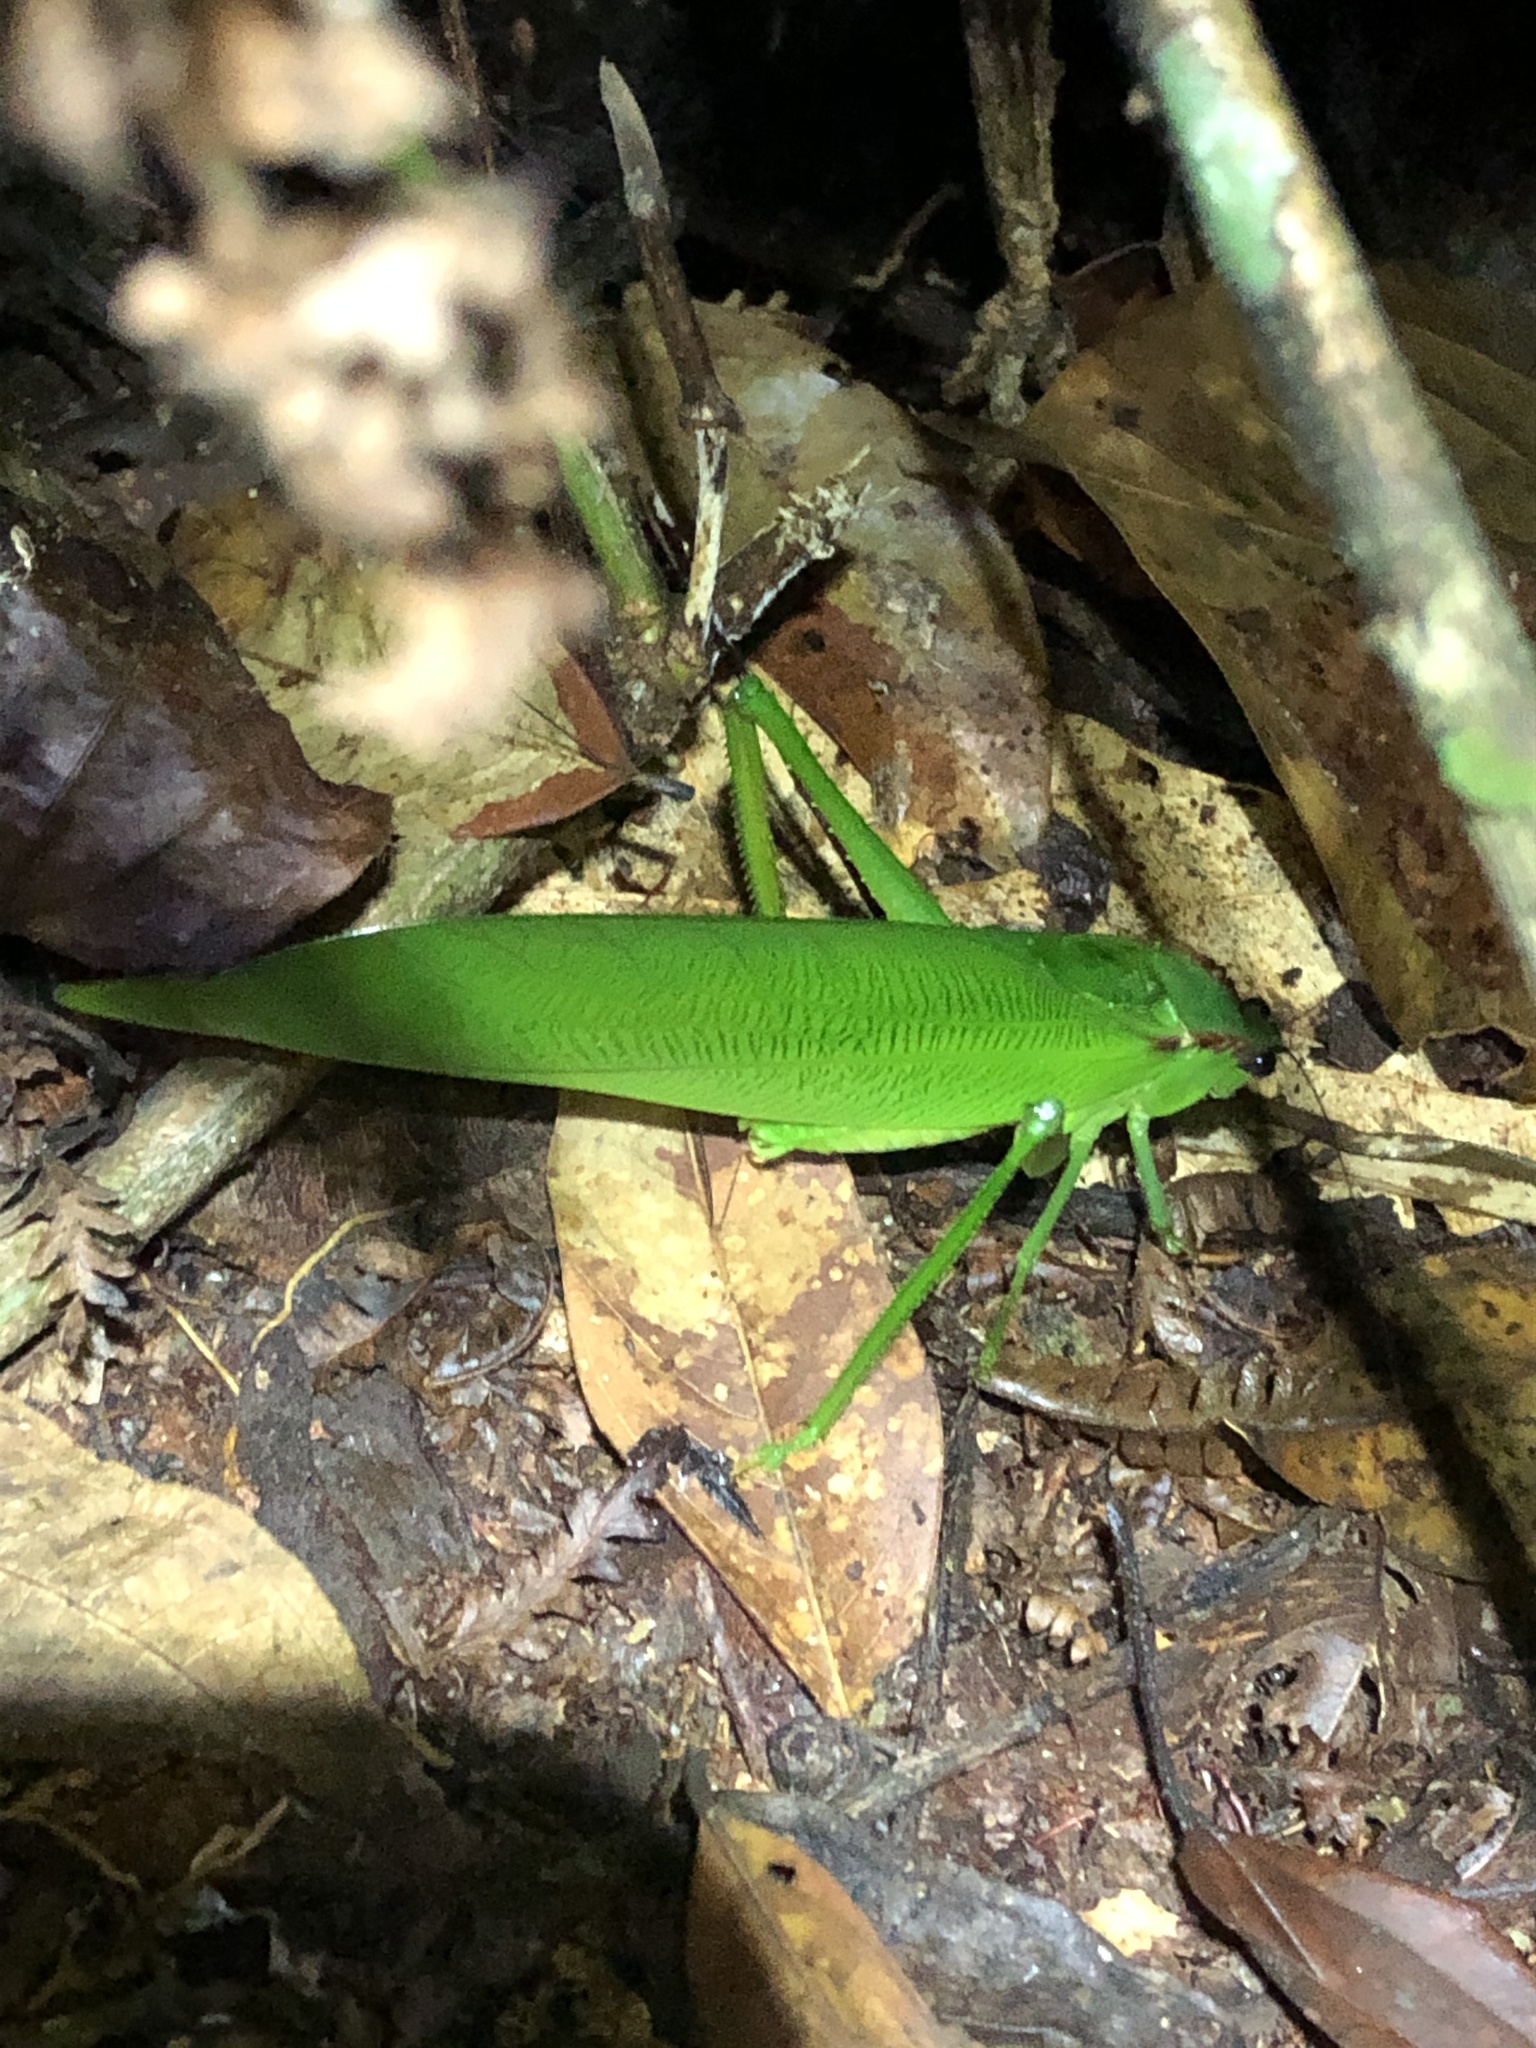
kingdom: Animalia
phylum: Arthropoda
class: Insecta
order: Orthoptera
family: Tettigoniidae
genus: Cnemidophyllum
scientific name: Cnemidophyllum granti
